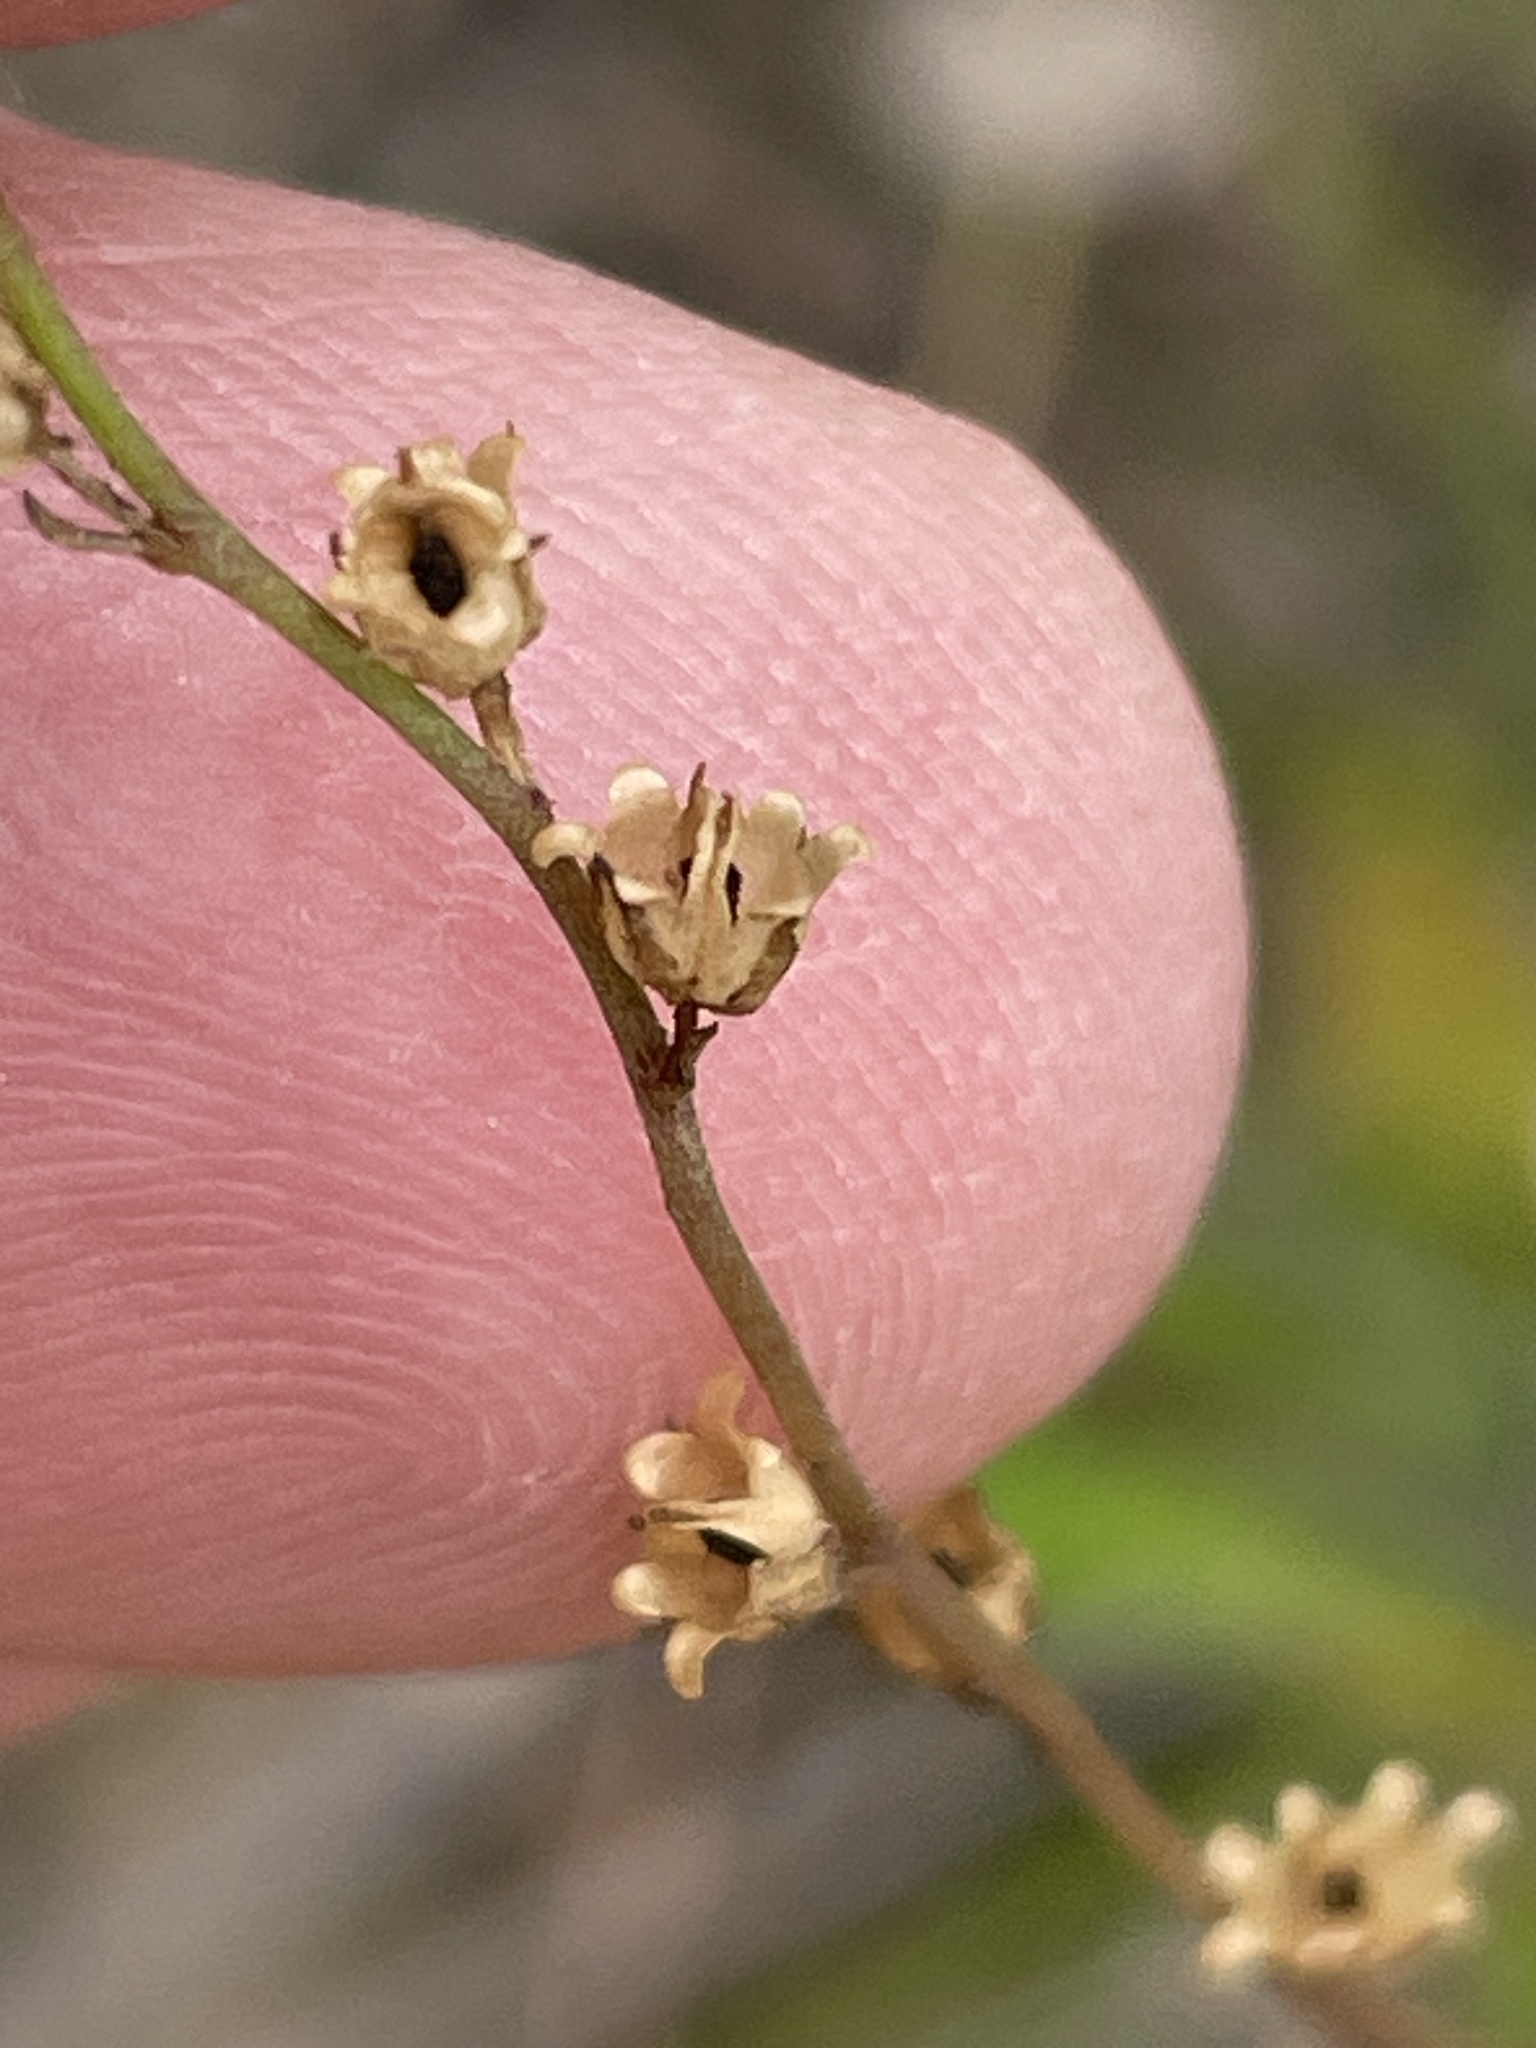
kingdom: Plantae
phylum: Tracheophyta
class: Magnoliopsida
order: Lamiales
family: Plantaginaceae
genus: Nuttallanthus
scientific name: Nuttallanthus canadensis
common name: Blue toadflax
